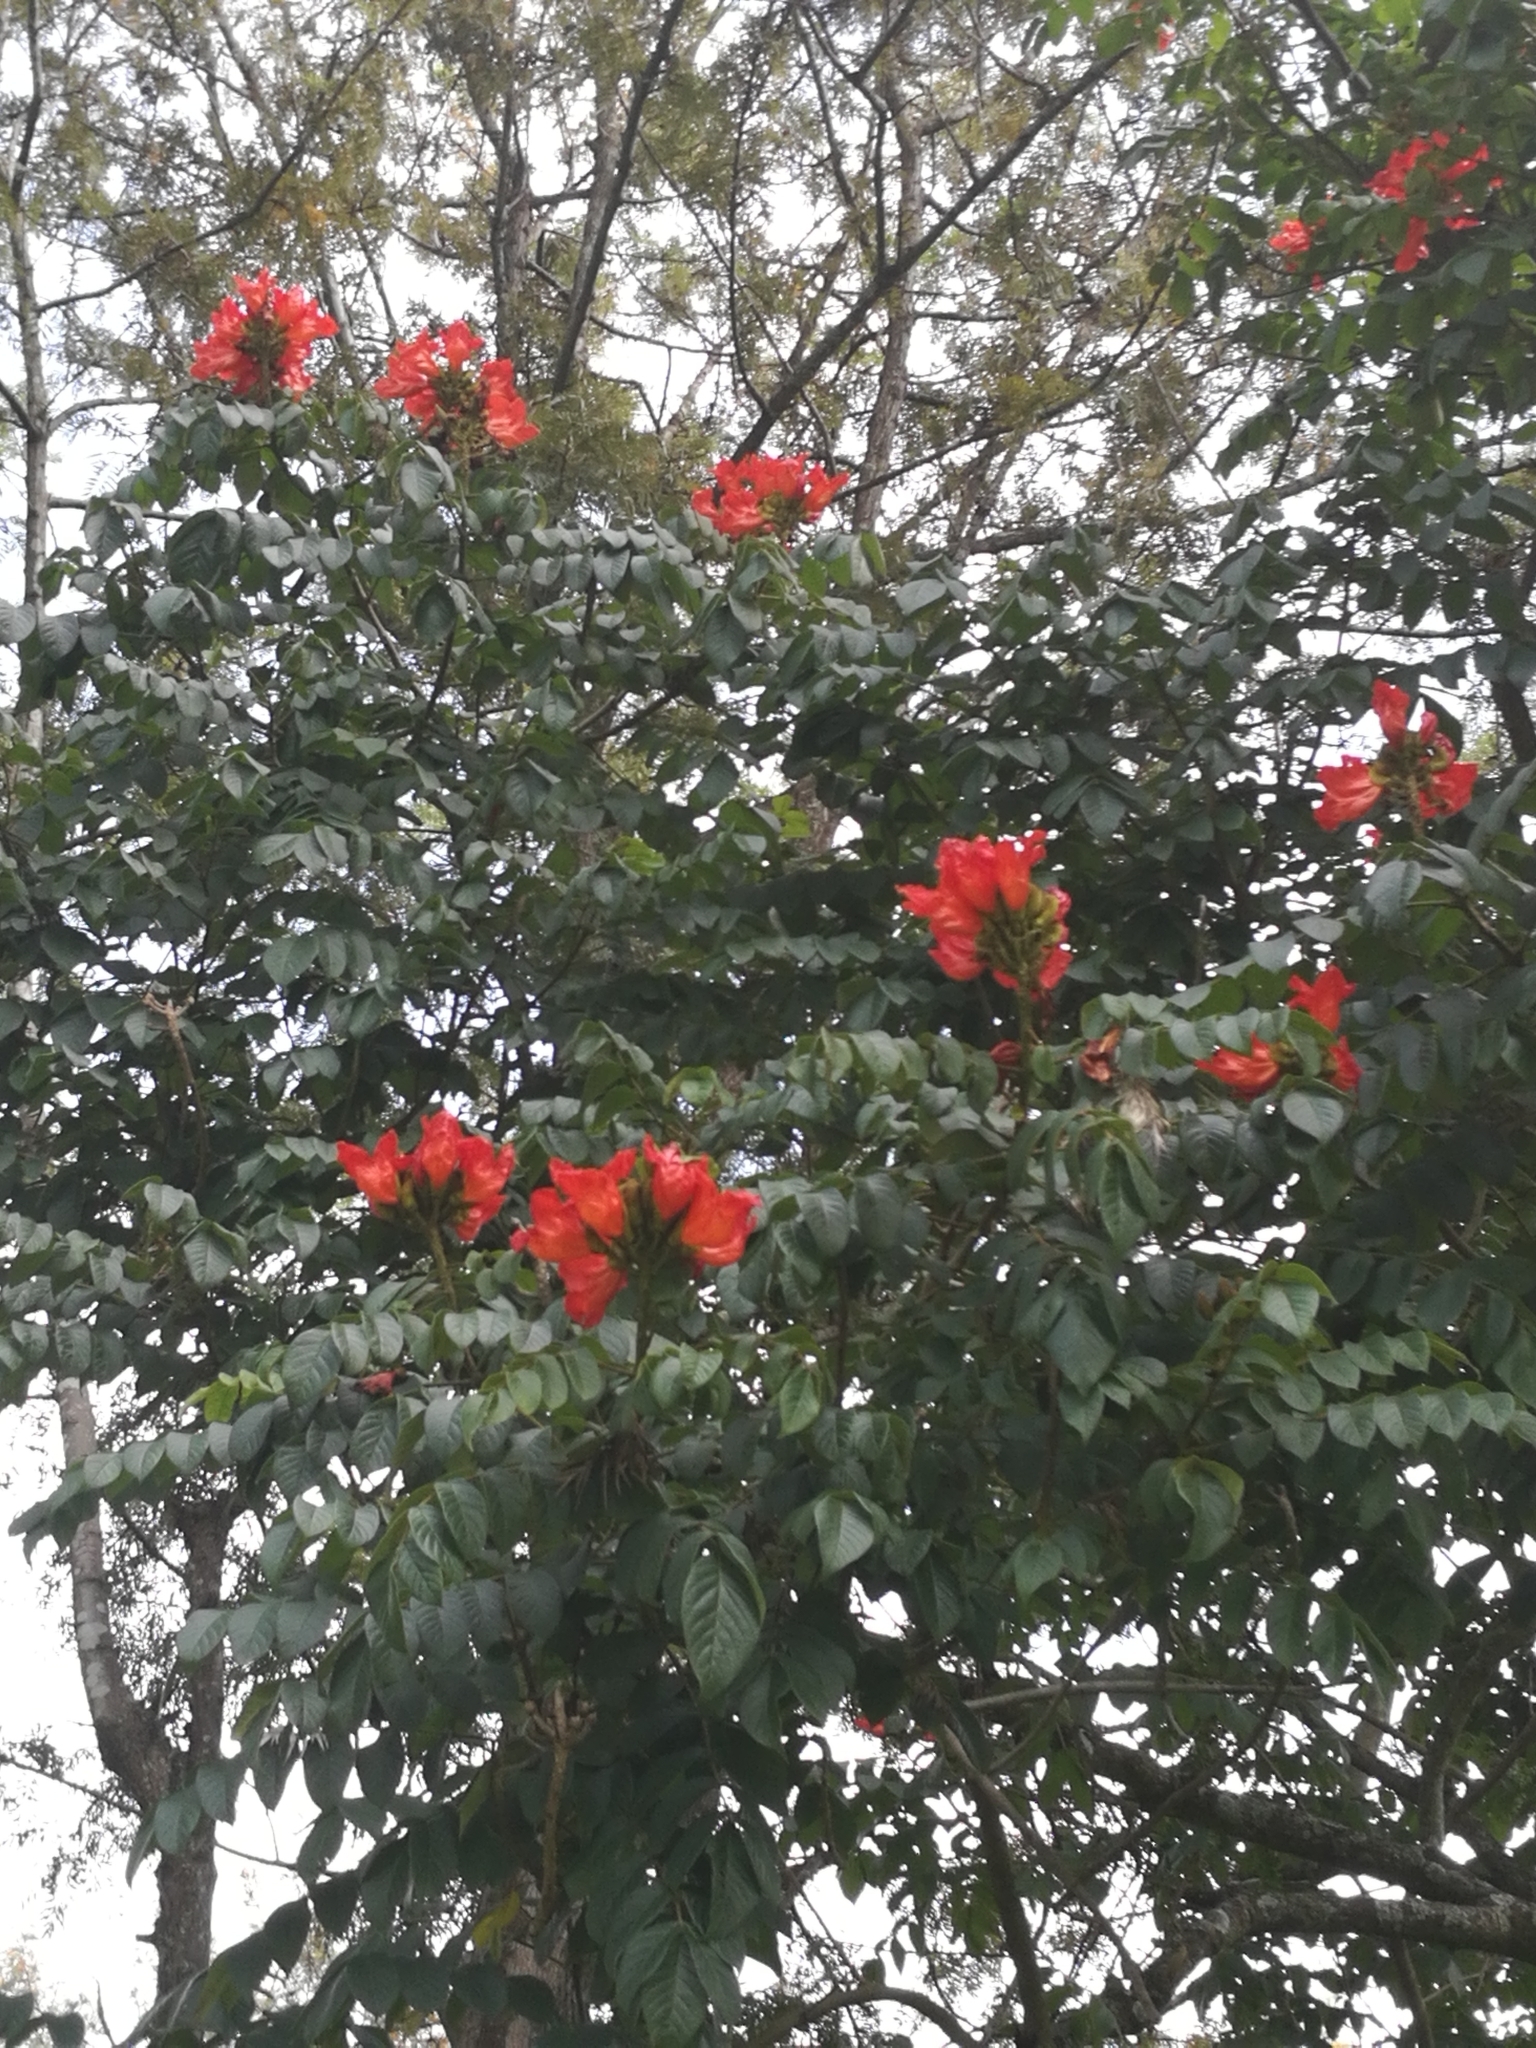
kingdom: Plantae
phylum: Tracheophyta
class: Magnoliopsida
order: Lamiales
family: Bignoniaceae
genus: Spathodea
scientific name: Spathodea campanulata
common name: African tuliptree
